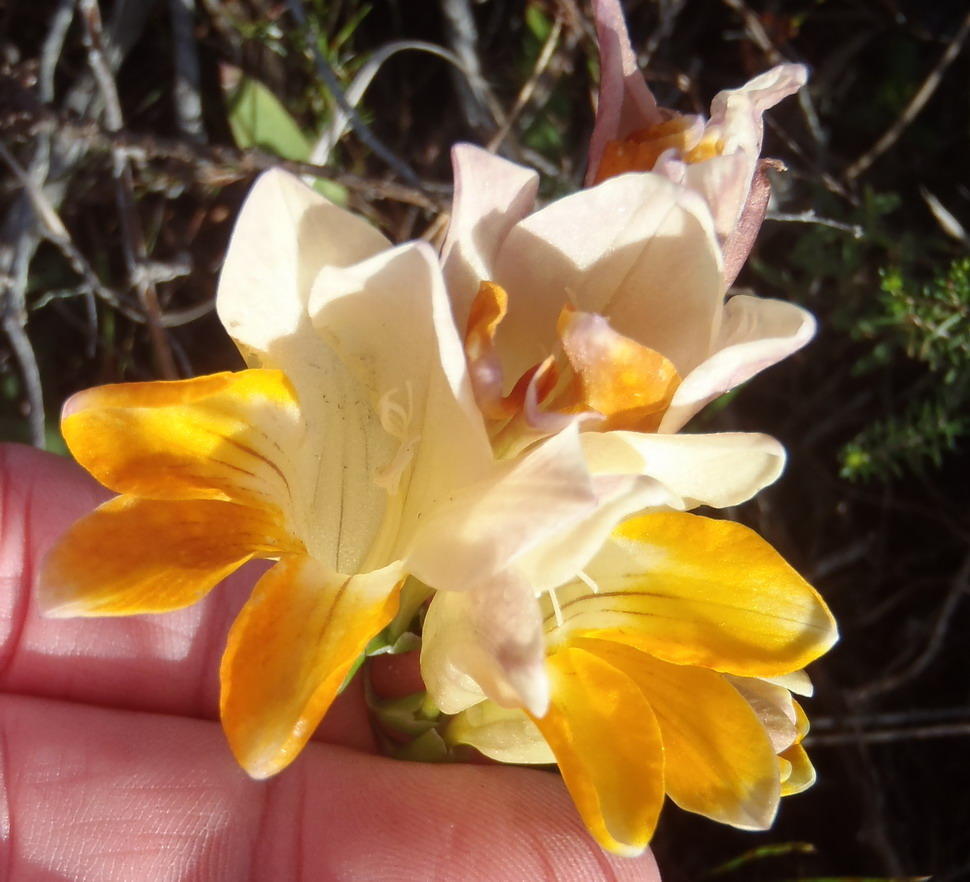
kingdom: Plantae
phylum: Tracheophyta
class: Liliopsida
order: Asparagales
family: Iridaceae
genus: Freesia
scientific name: Freesia fergusoniae
